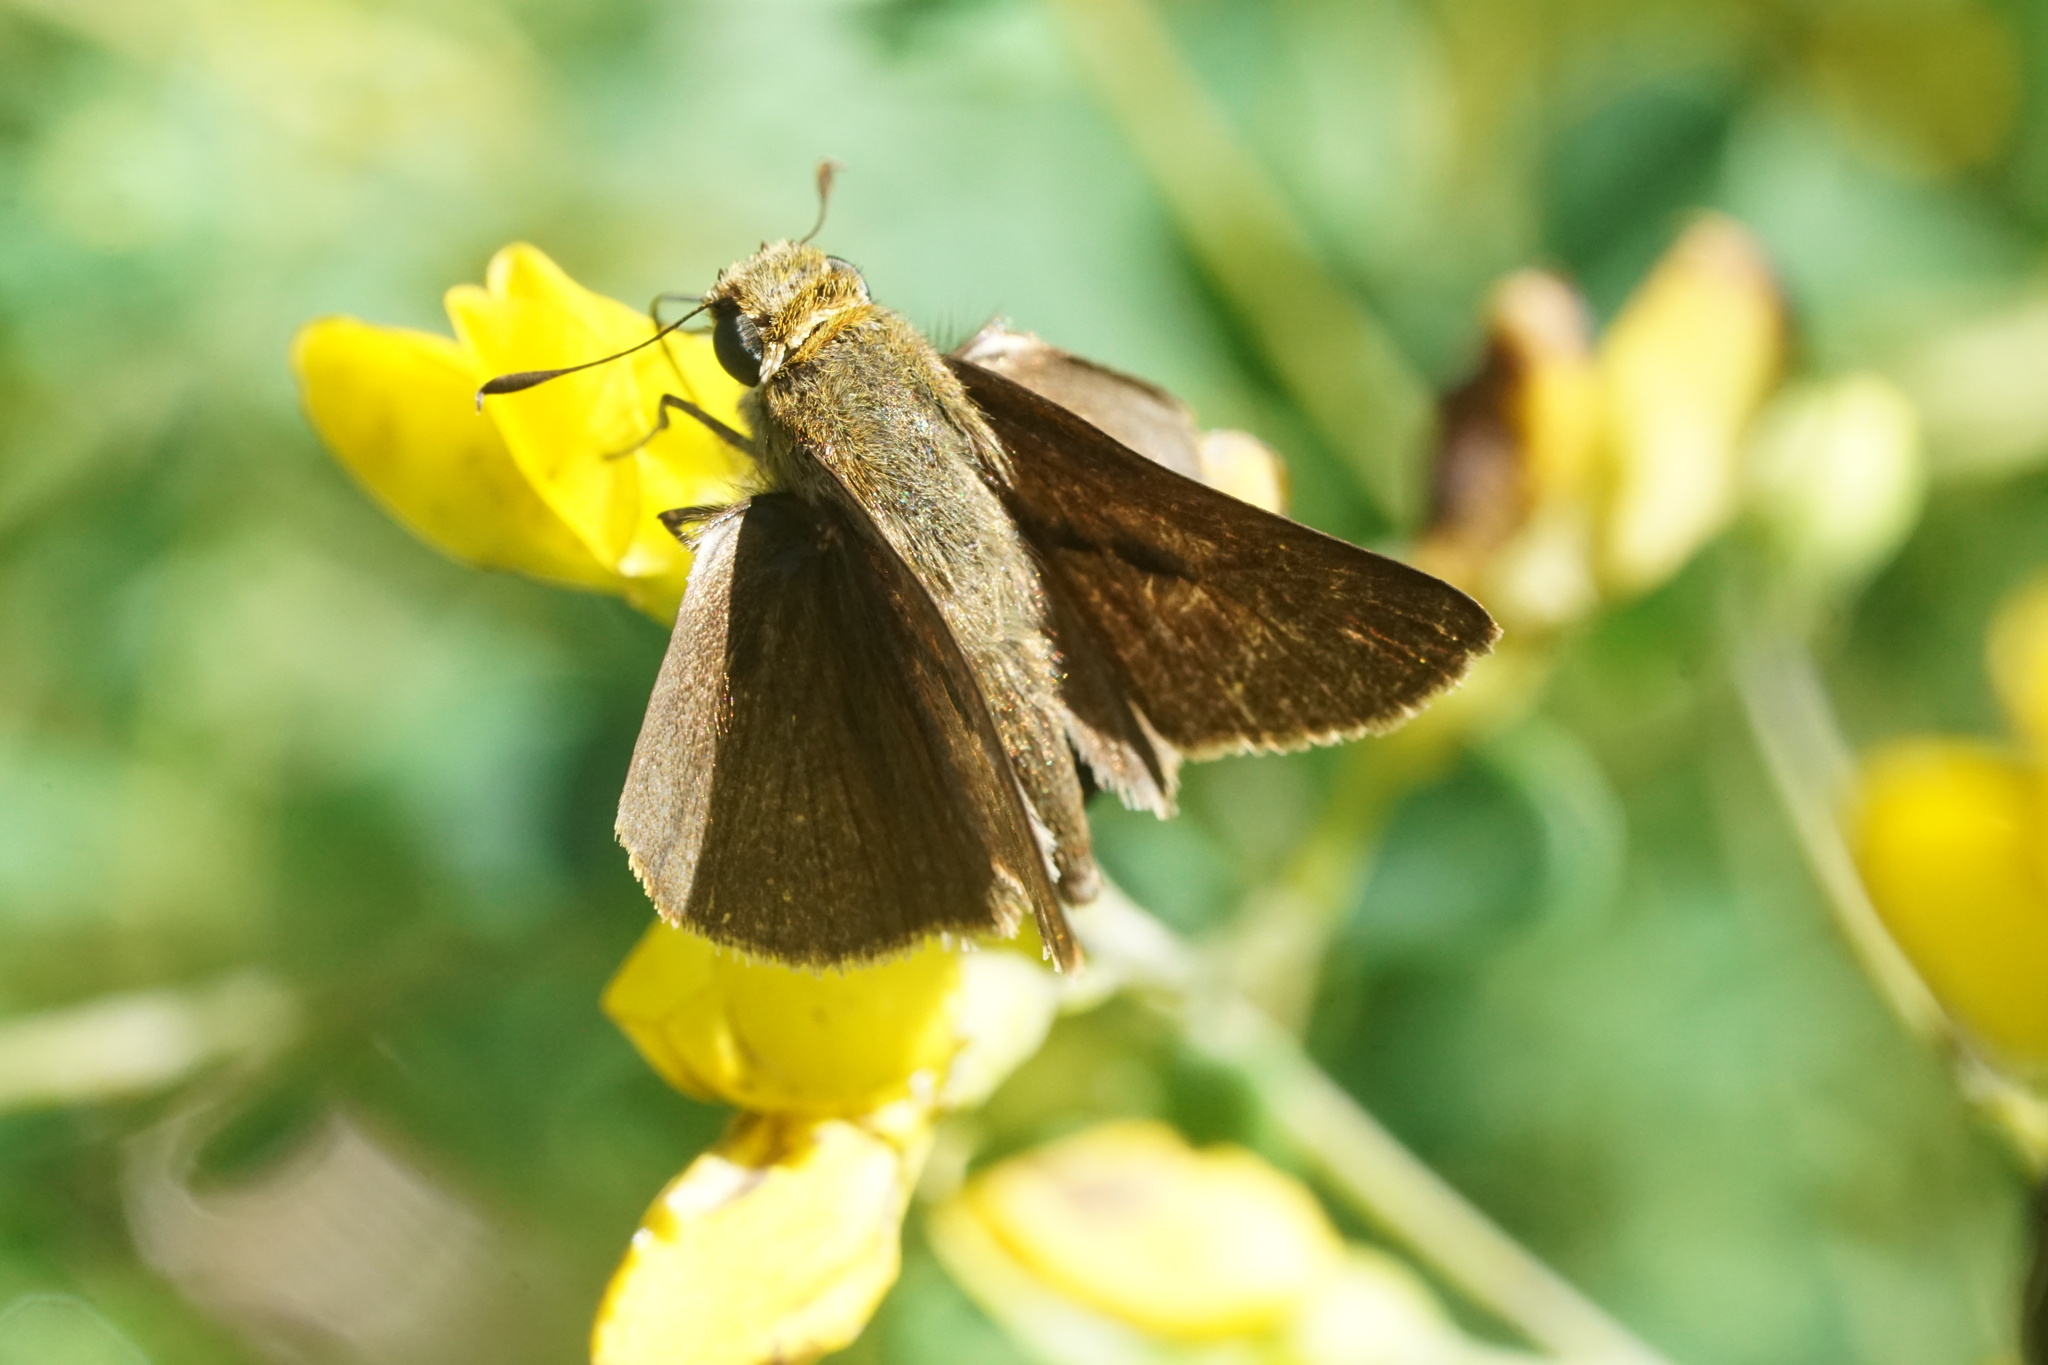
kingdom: Animalia
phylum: Arthropoda
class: Insecta
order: Lepidoptera
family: Hesperiidae
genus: Euphyes
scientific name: Euphyes vestris
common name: Dun skipper
